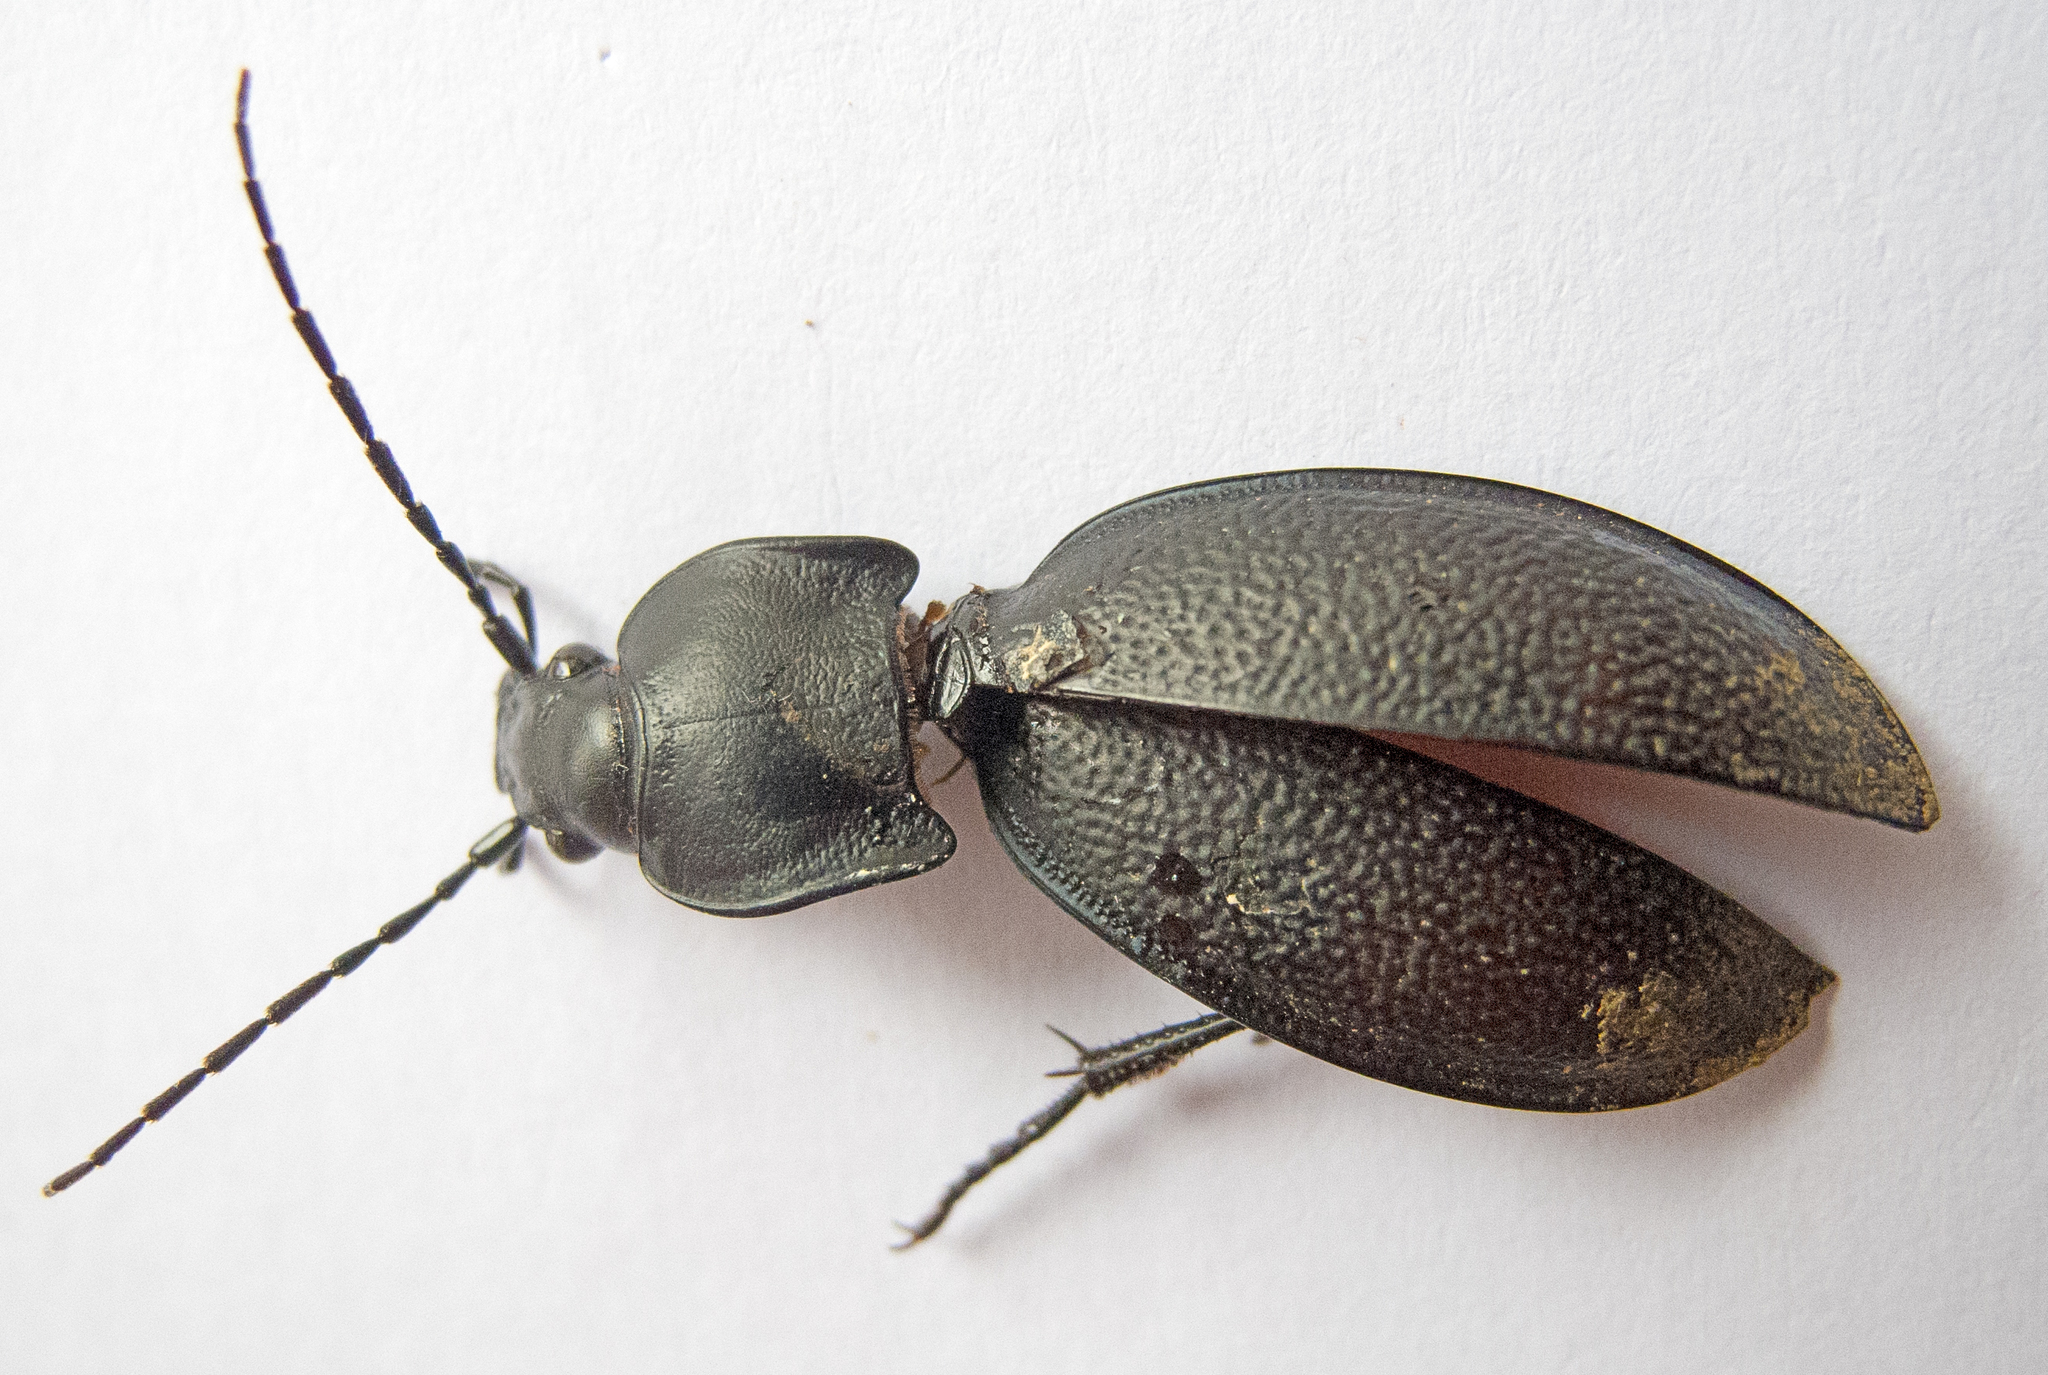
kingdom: Animalia
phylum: Arthropoda
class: Insecta
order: Coleoptera
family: Carabidae
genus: Carabus
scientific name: Carabus coriaceus
